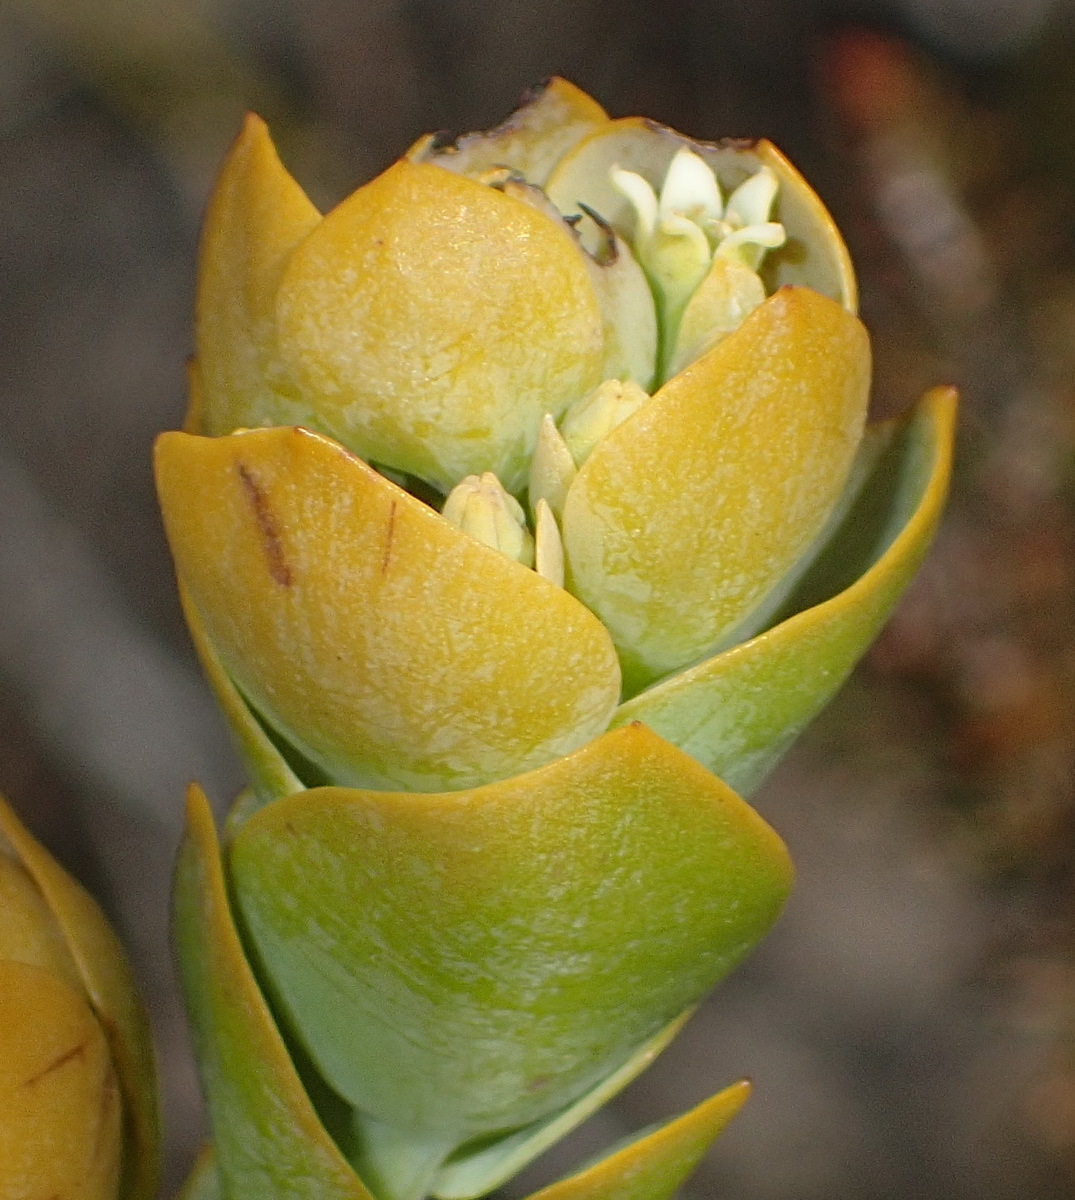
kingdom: Plantae
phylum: Tracheophyta
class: Magnoliopsida
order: Santalales
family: Thesiaceae
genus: Thesium
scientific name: Thesium euphorbioides
